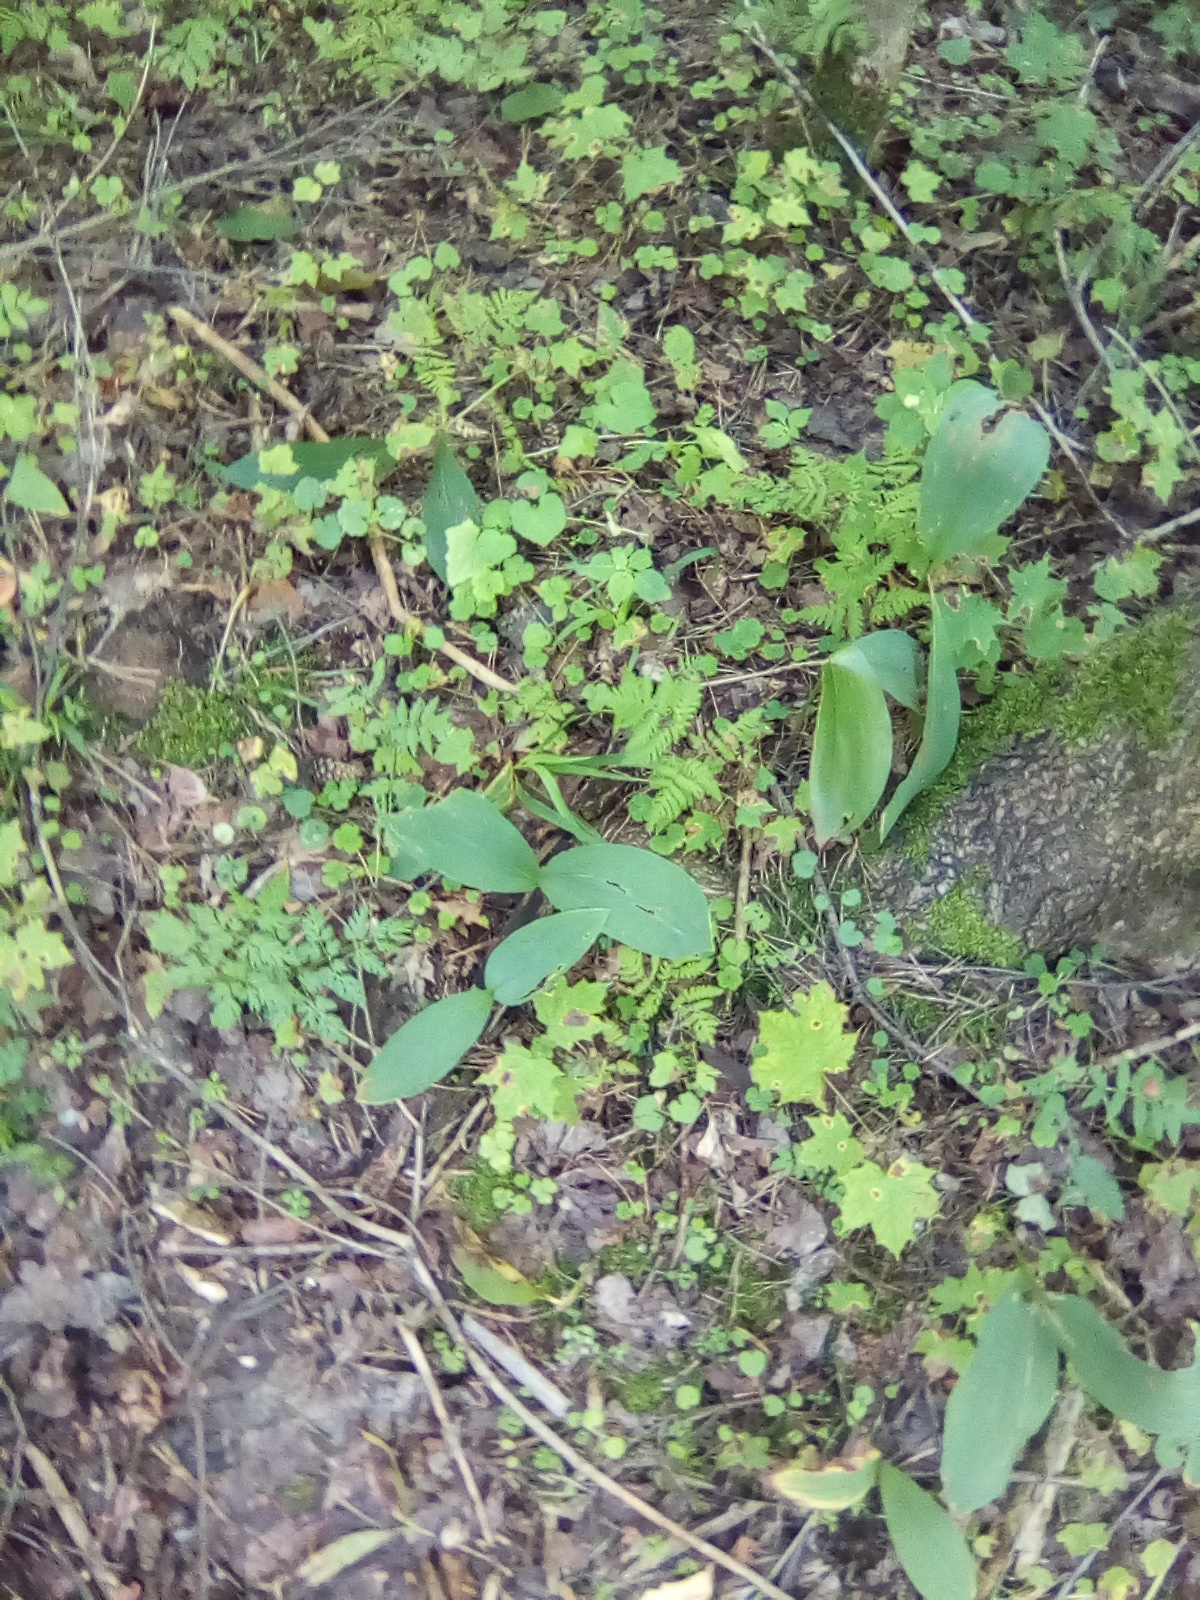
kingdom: Plantae
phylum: Tracheophyta
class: Polypodiopsida
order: Polypodiales
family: Cystopteridaceae
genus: Gymnocarpium
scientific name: Gymnocarpium dryopteris
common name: Oak fern
